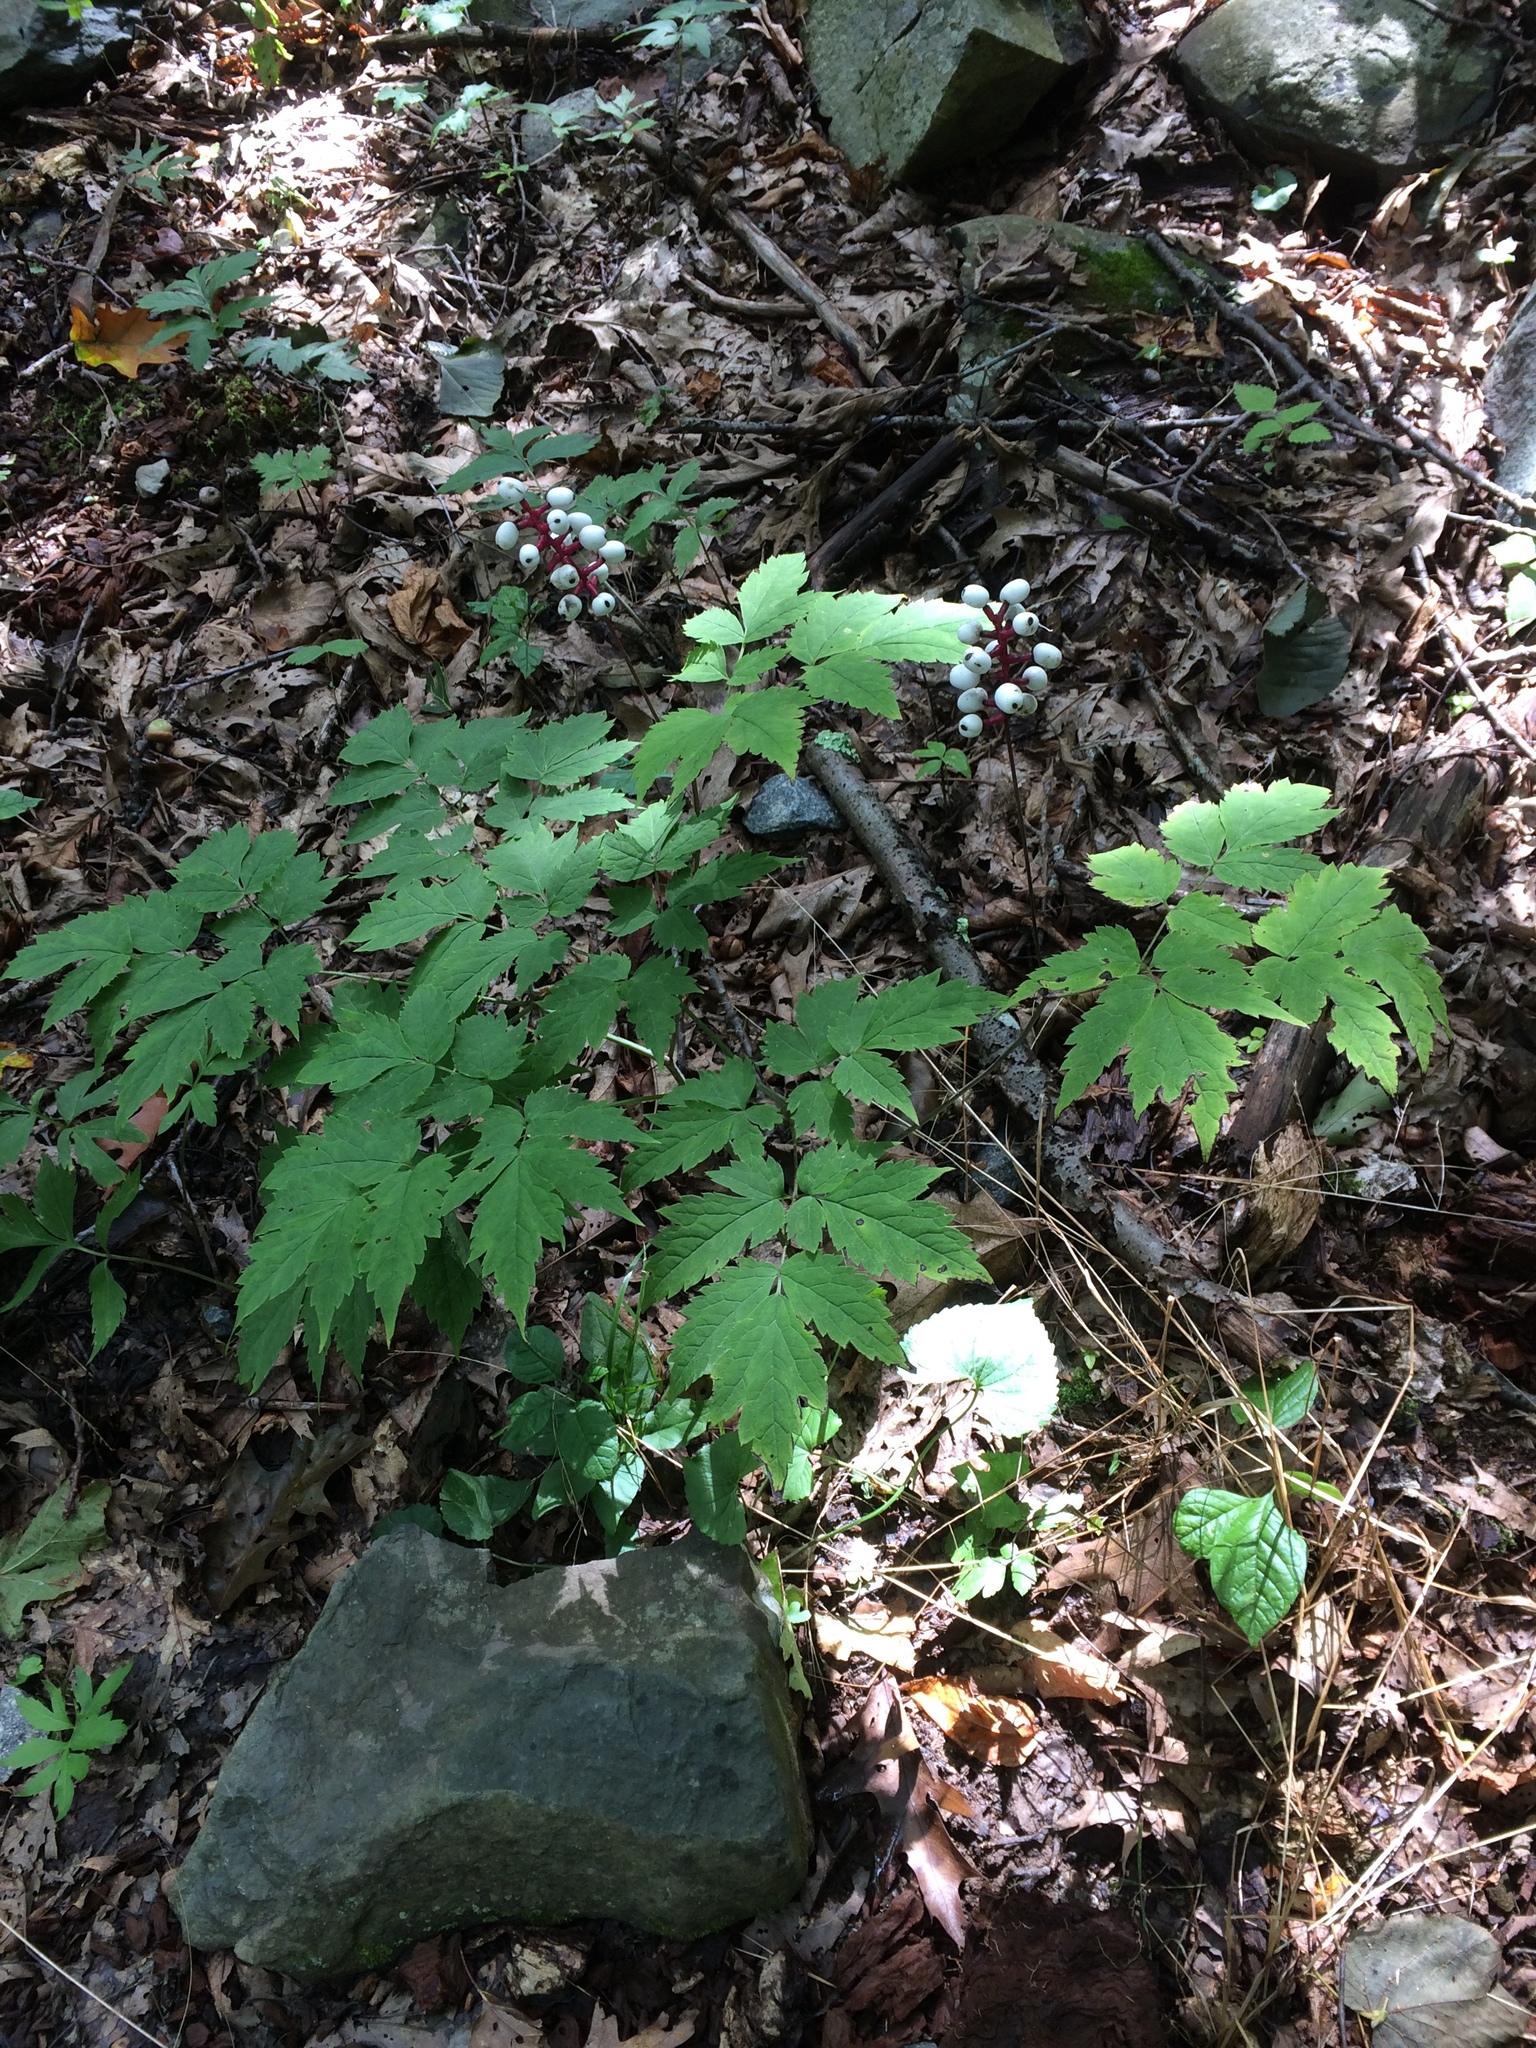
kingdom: Plantae
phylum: Tracheophyta
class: Magnoliopsida
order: Ranunculales
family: Ranunculaceae
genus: Actaea
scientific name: Actaea pachypoda
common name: Doll's-eyes
